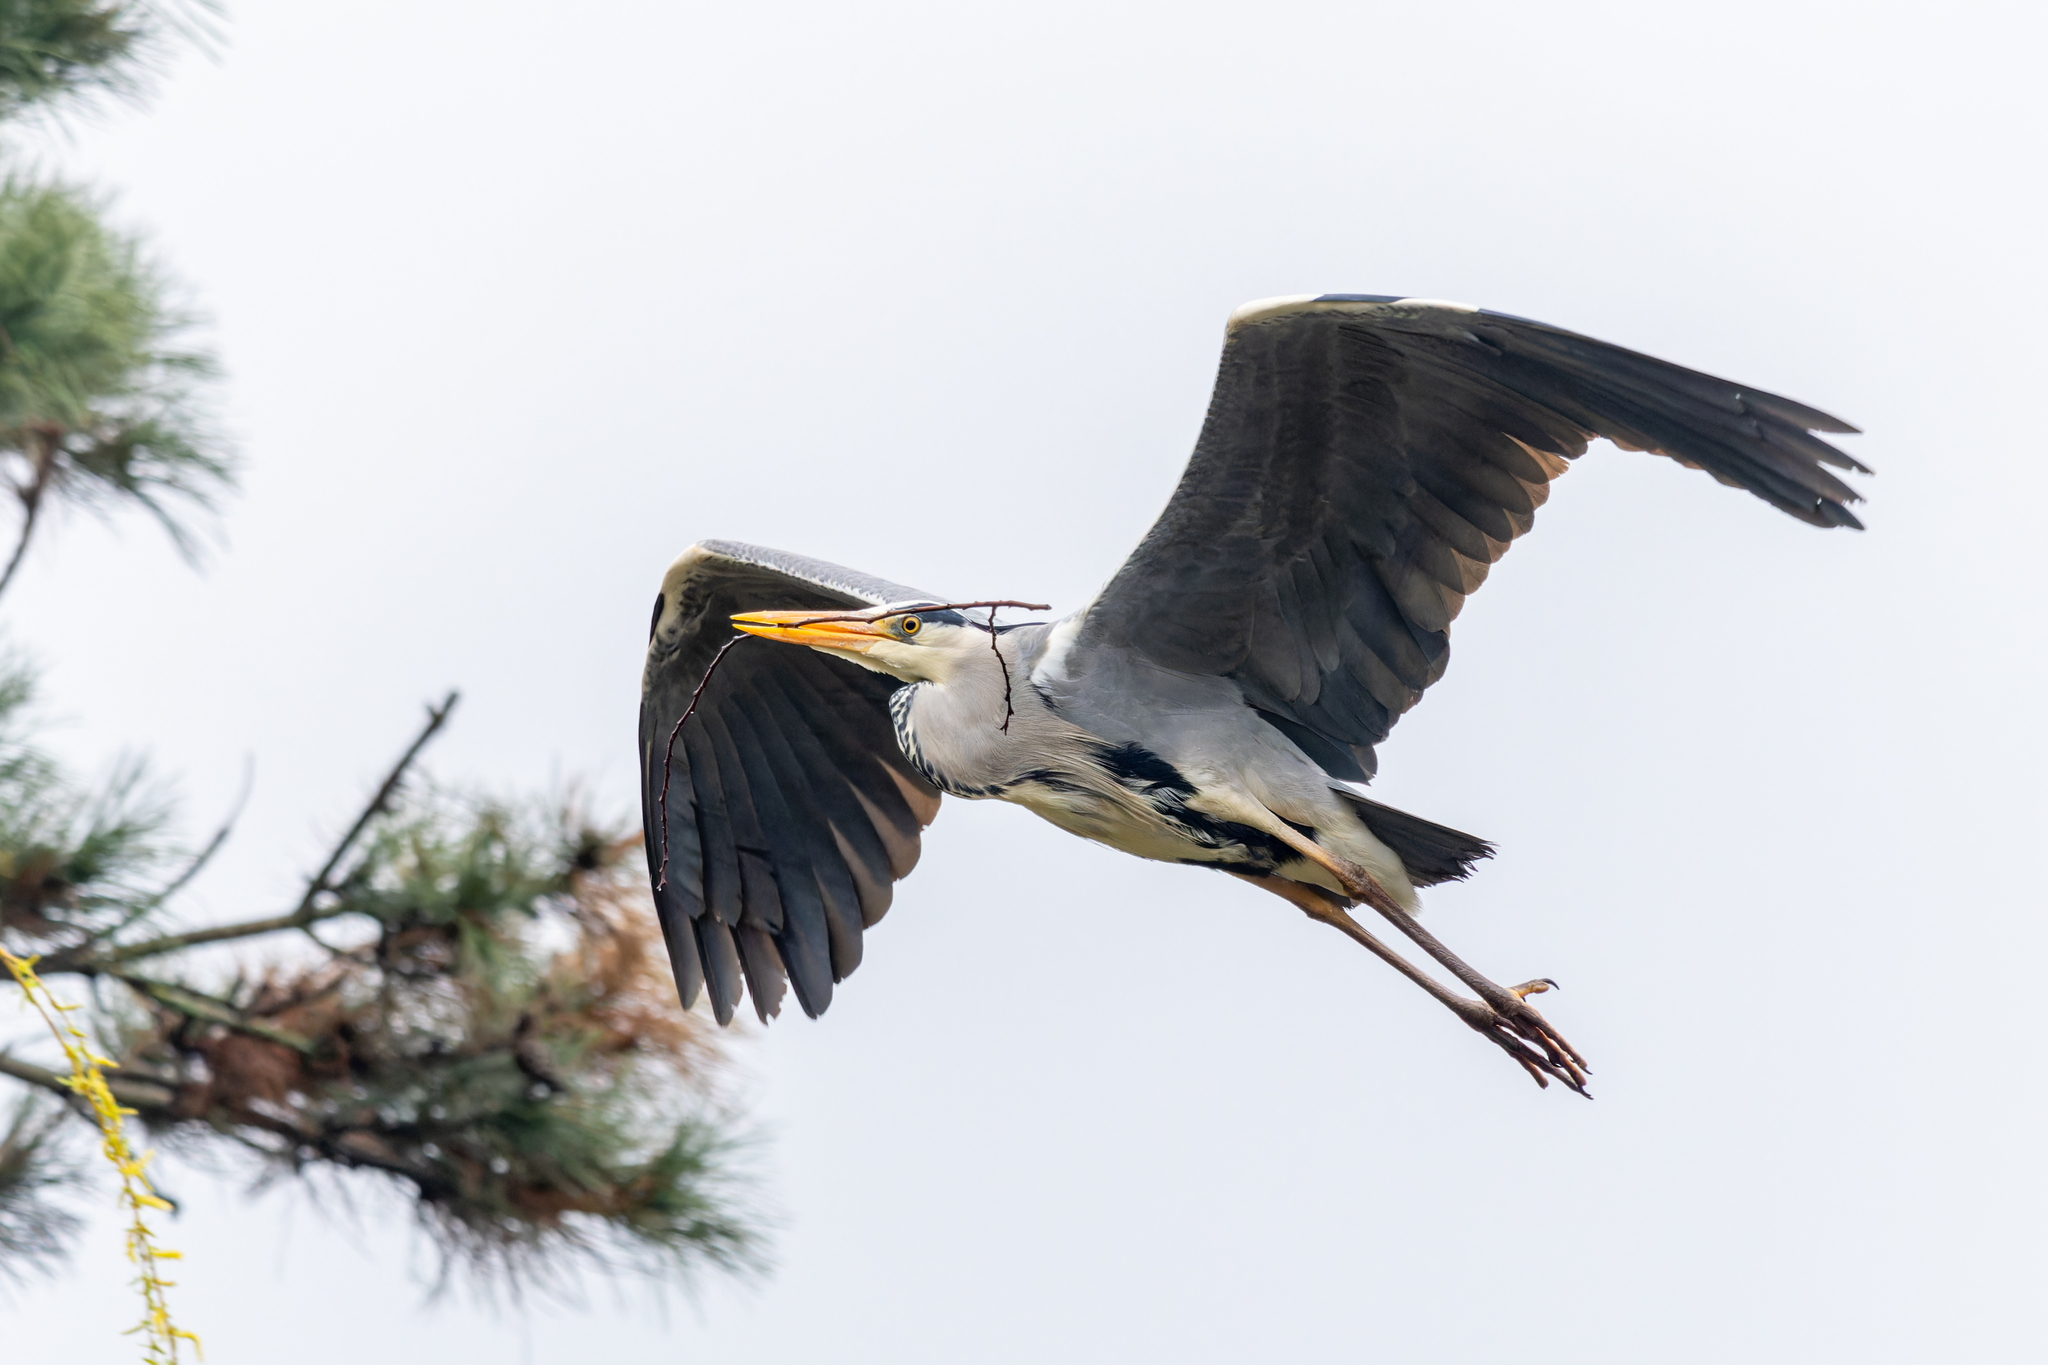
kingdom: Animalia
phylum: Chordata
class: Aves
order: Pelecaniformes
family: Ardeidae
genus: Ardea
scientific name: Ardea cinerea
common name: Grey heron
